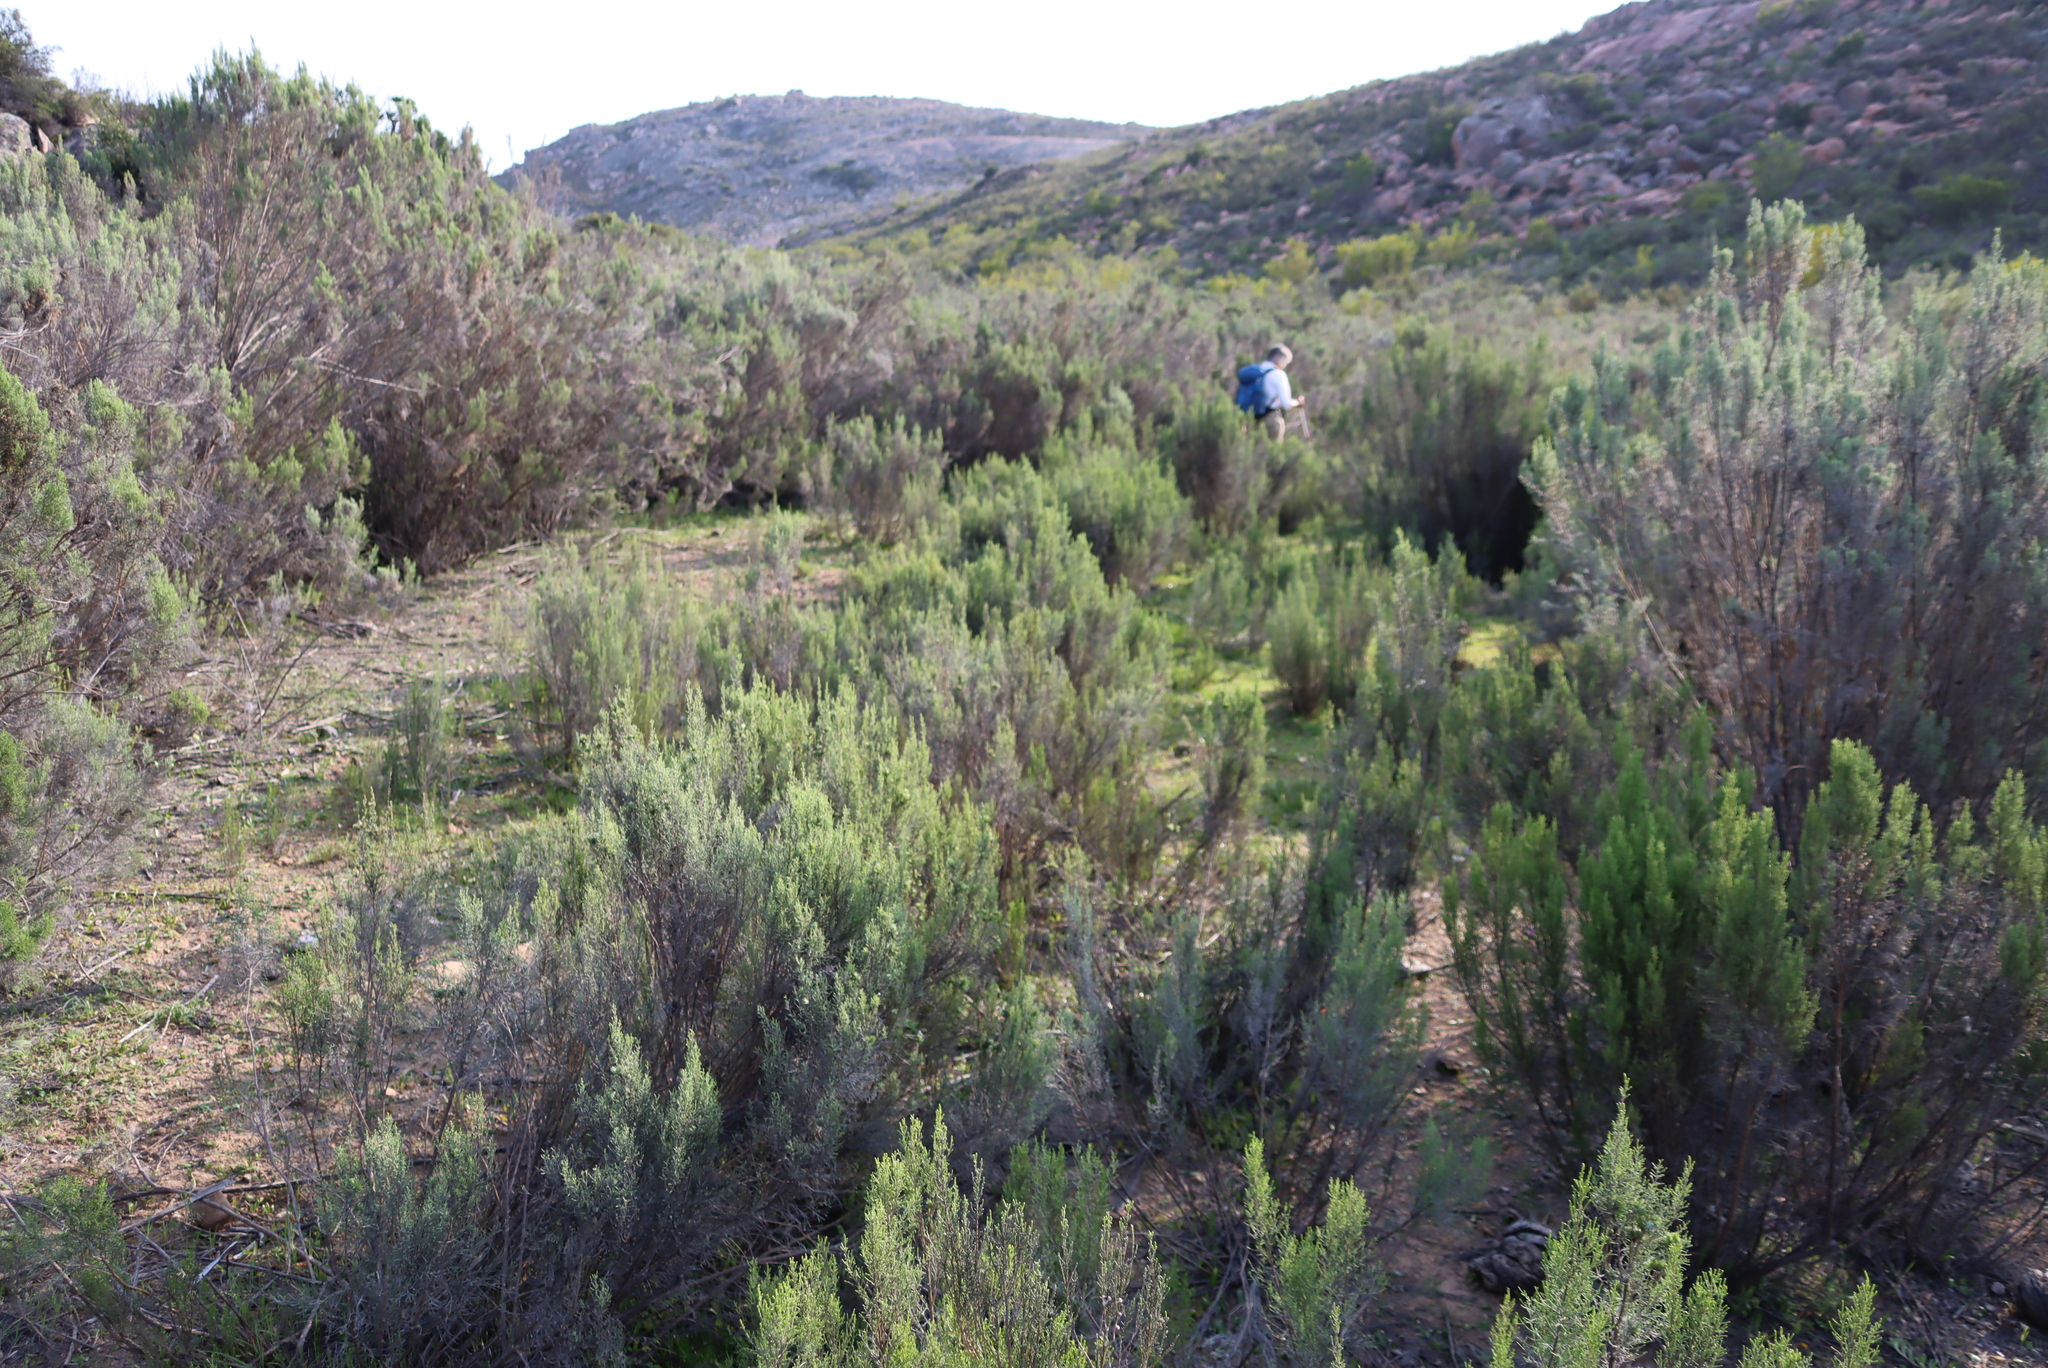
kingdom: Plantae
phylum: Tracheophyta
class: Magnoliopsida
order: Asterales
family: Asteraceae
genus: Dicerothamnus
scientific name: Dicerothamnus rhinocerotis
